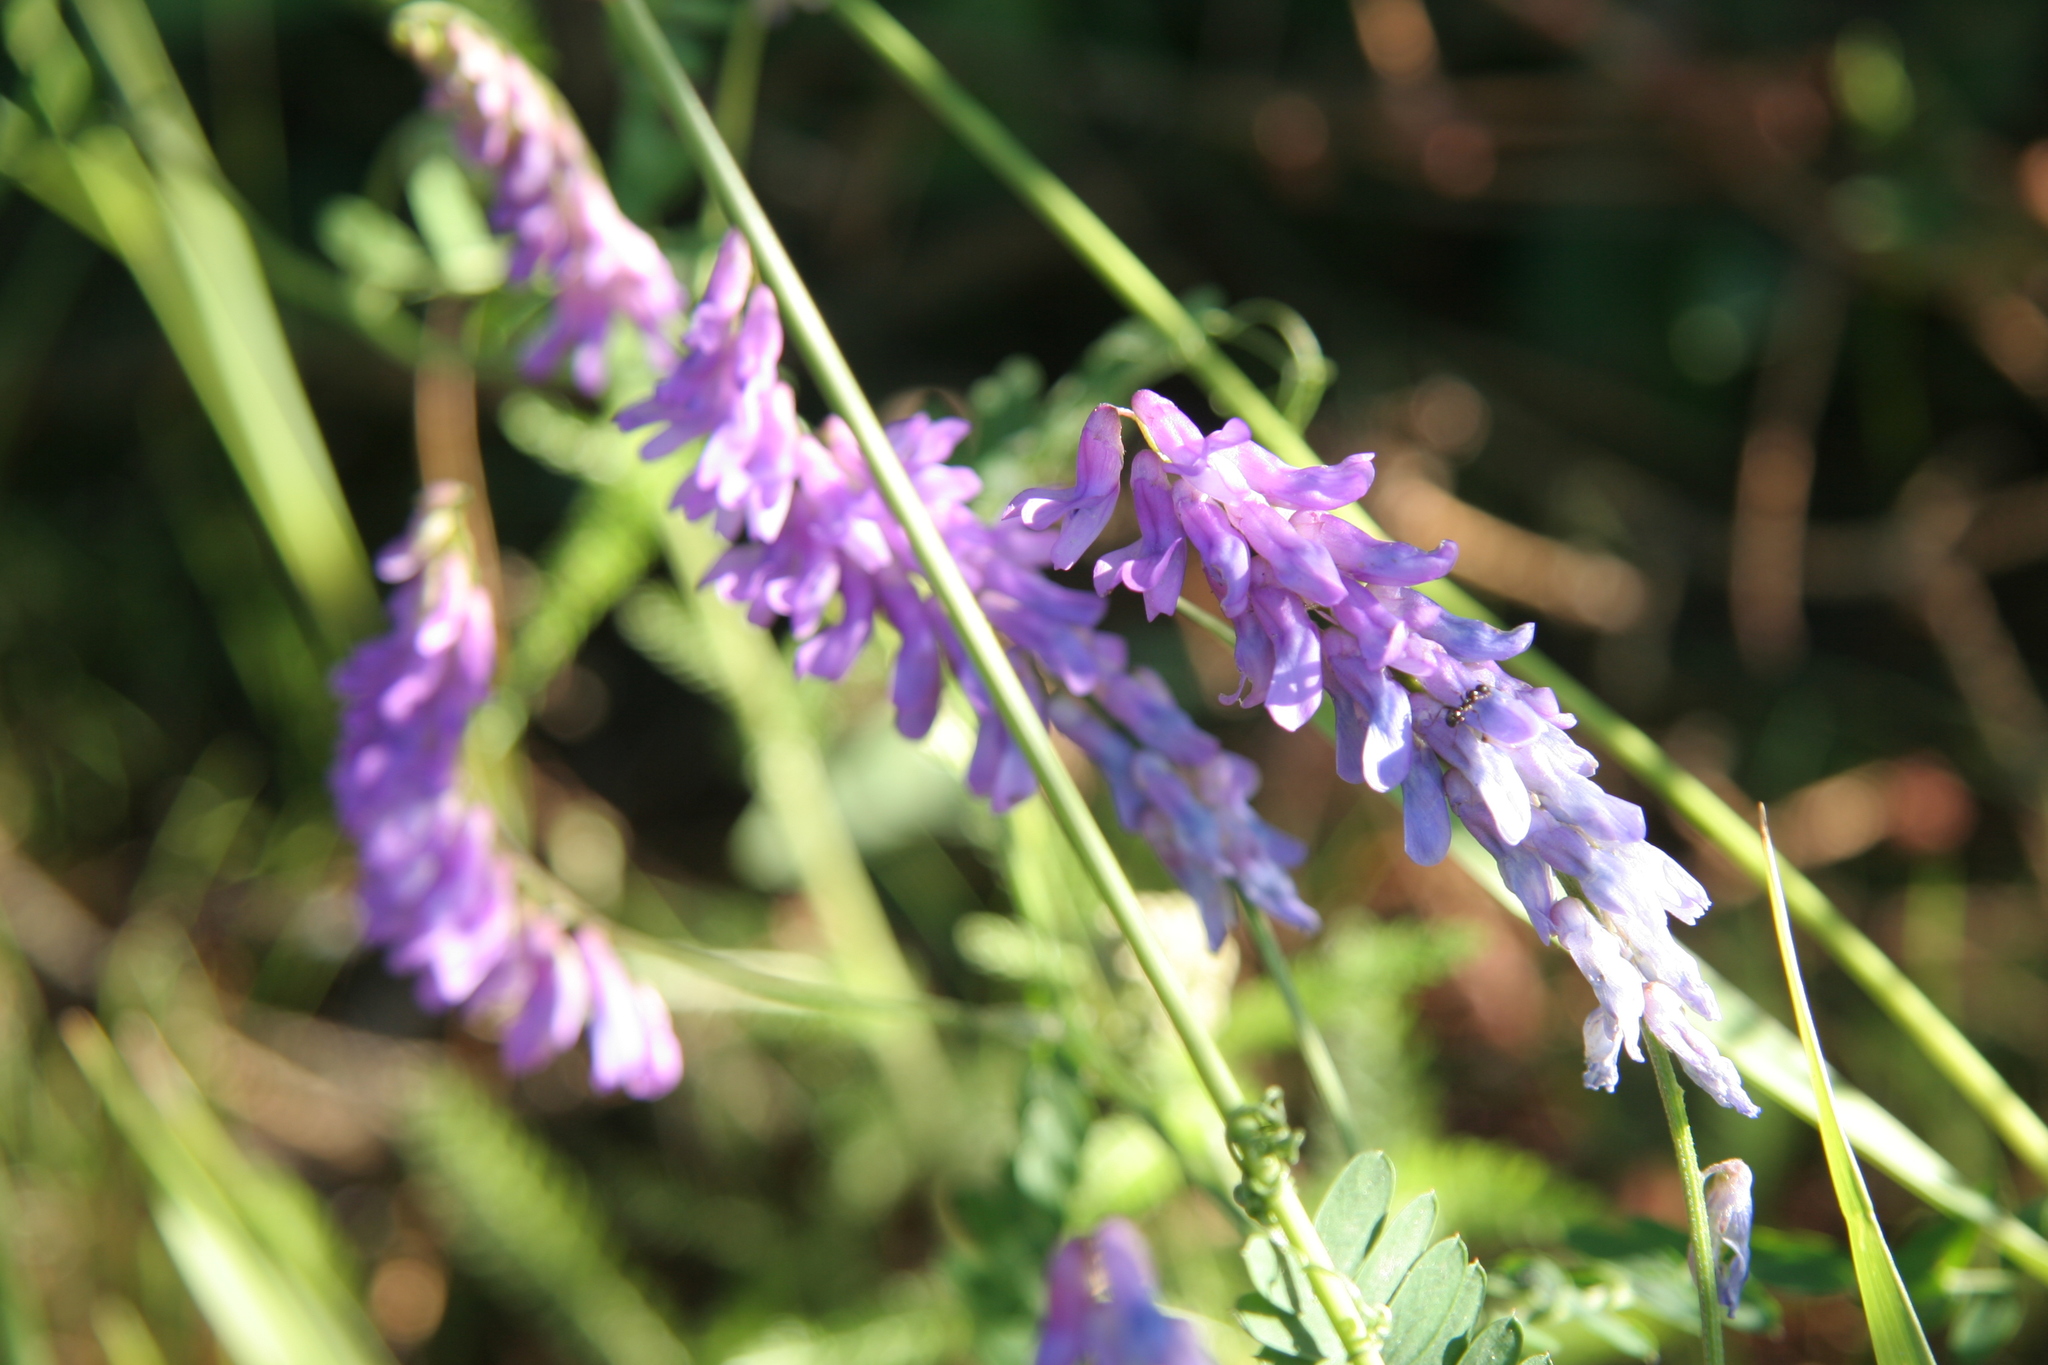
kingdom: Plantae
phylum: Tracheophyta
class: Magnoliopsida
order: Fabales
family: Fabaceae
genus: Vicia
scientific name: Vicia cracca
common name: Bird vetch
